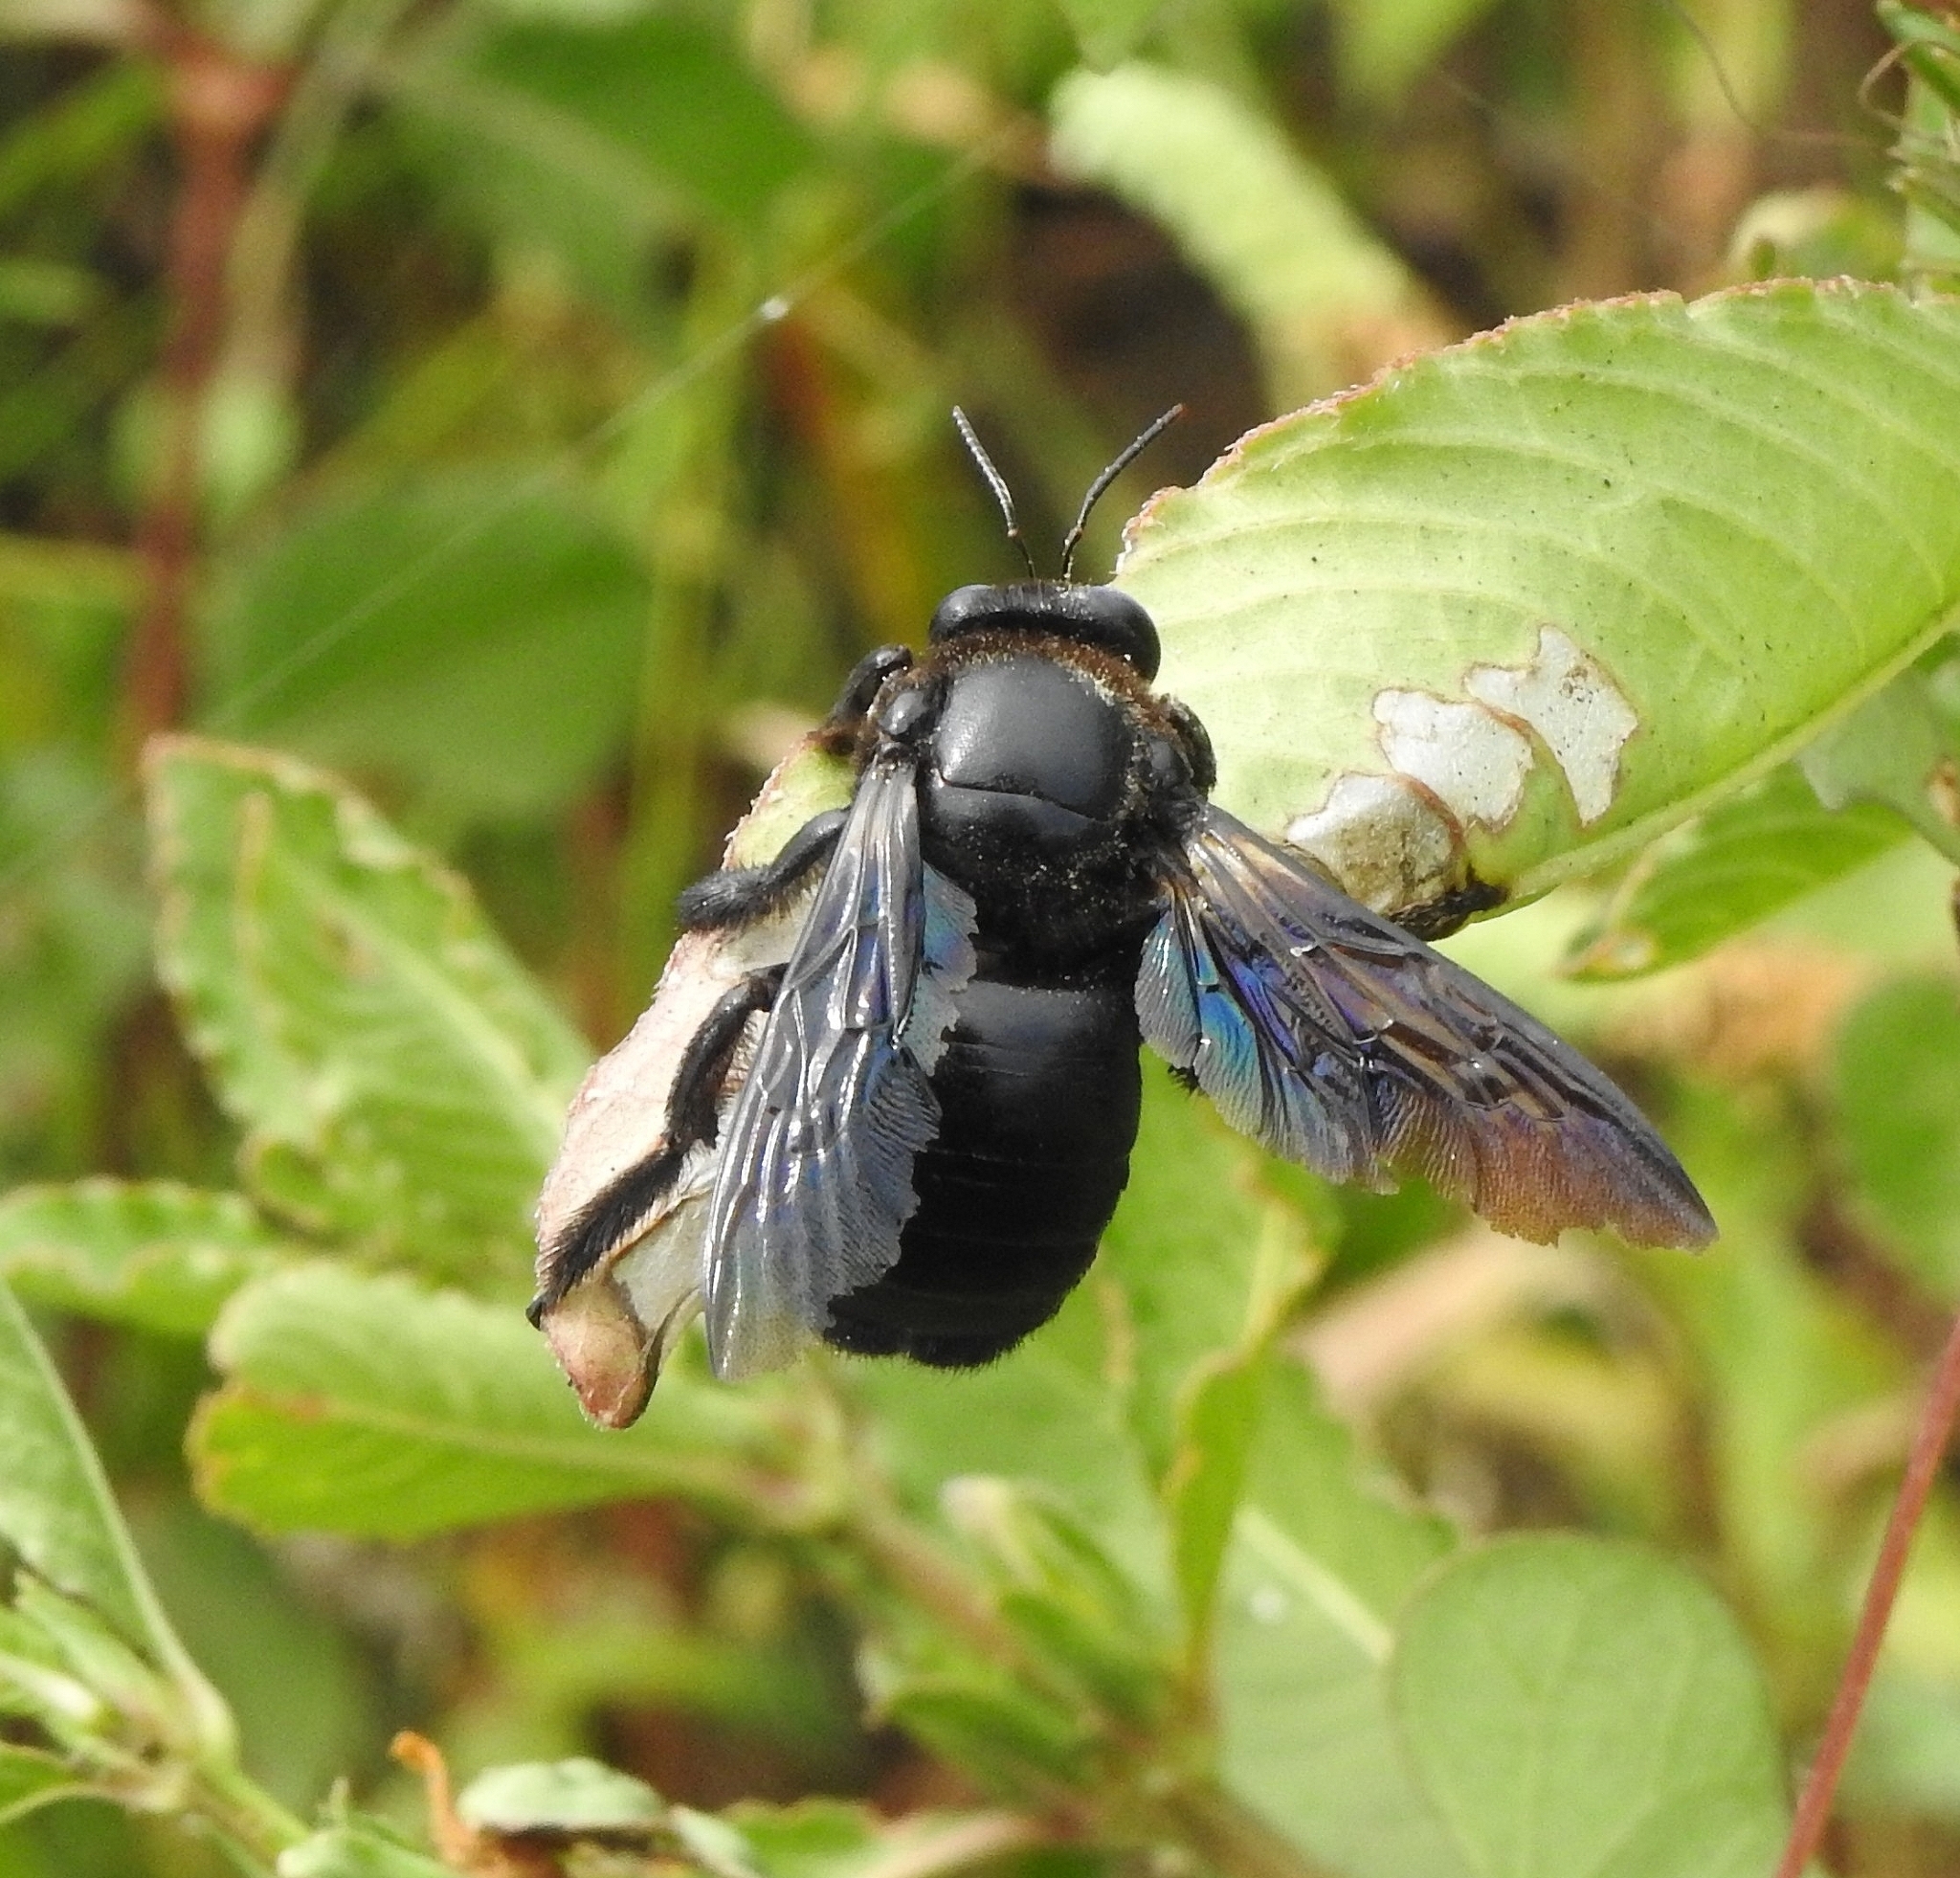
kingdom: Animalia
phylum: Arthropoda
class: Insecta
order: Hymenoptera
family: Apidae
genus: Xylocopa
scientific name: Xylocopa fenestrata
